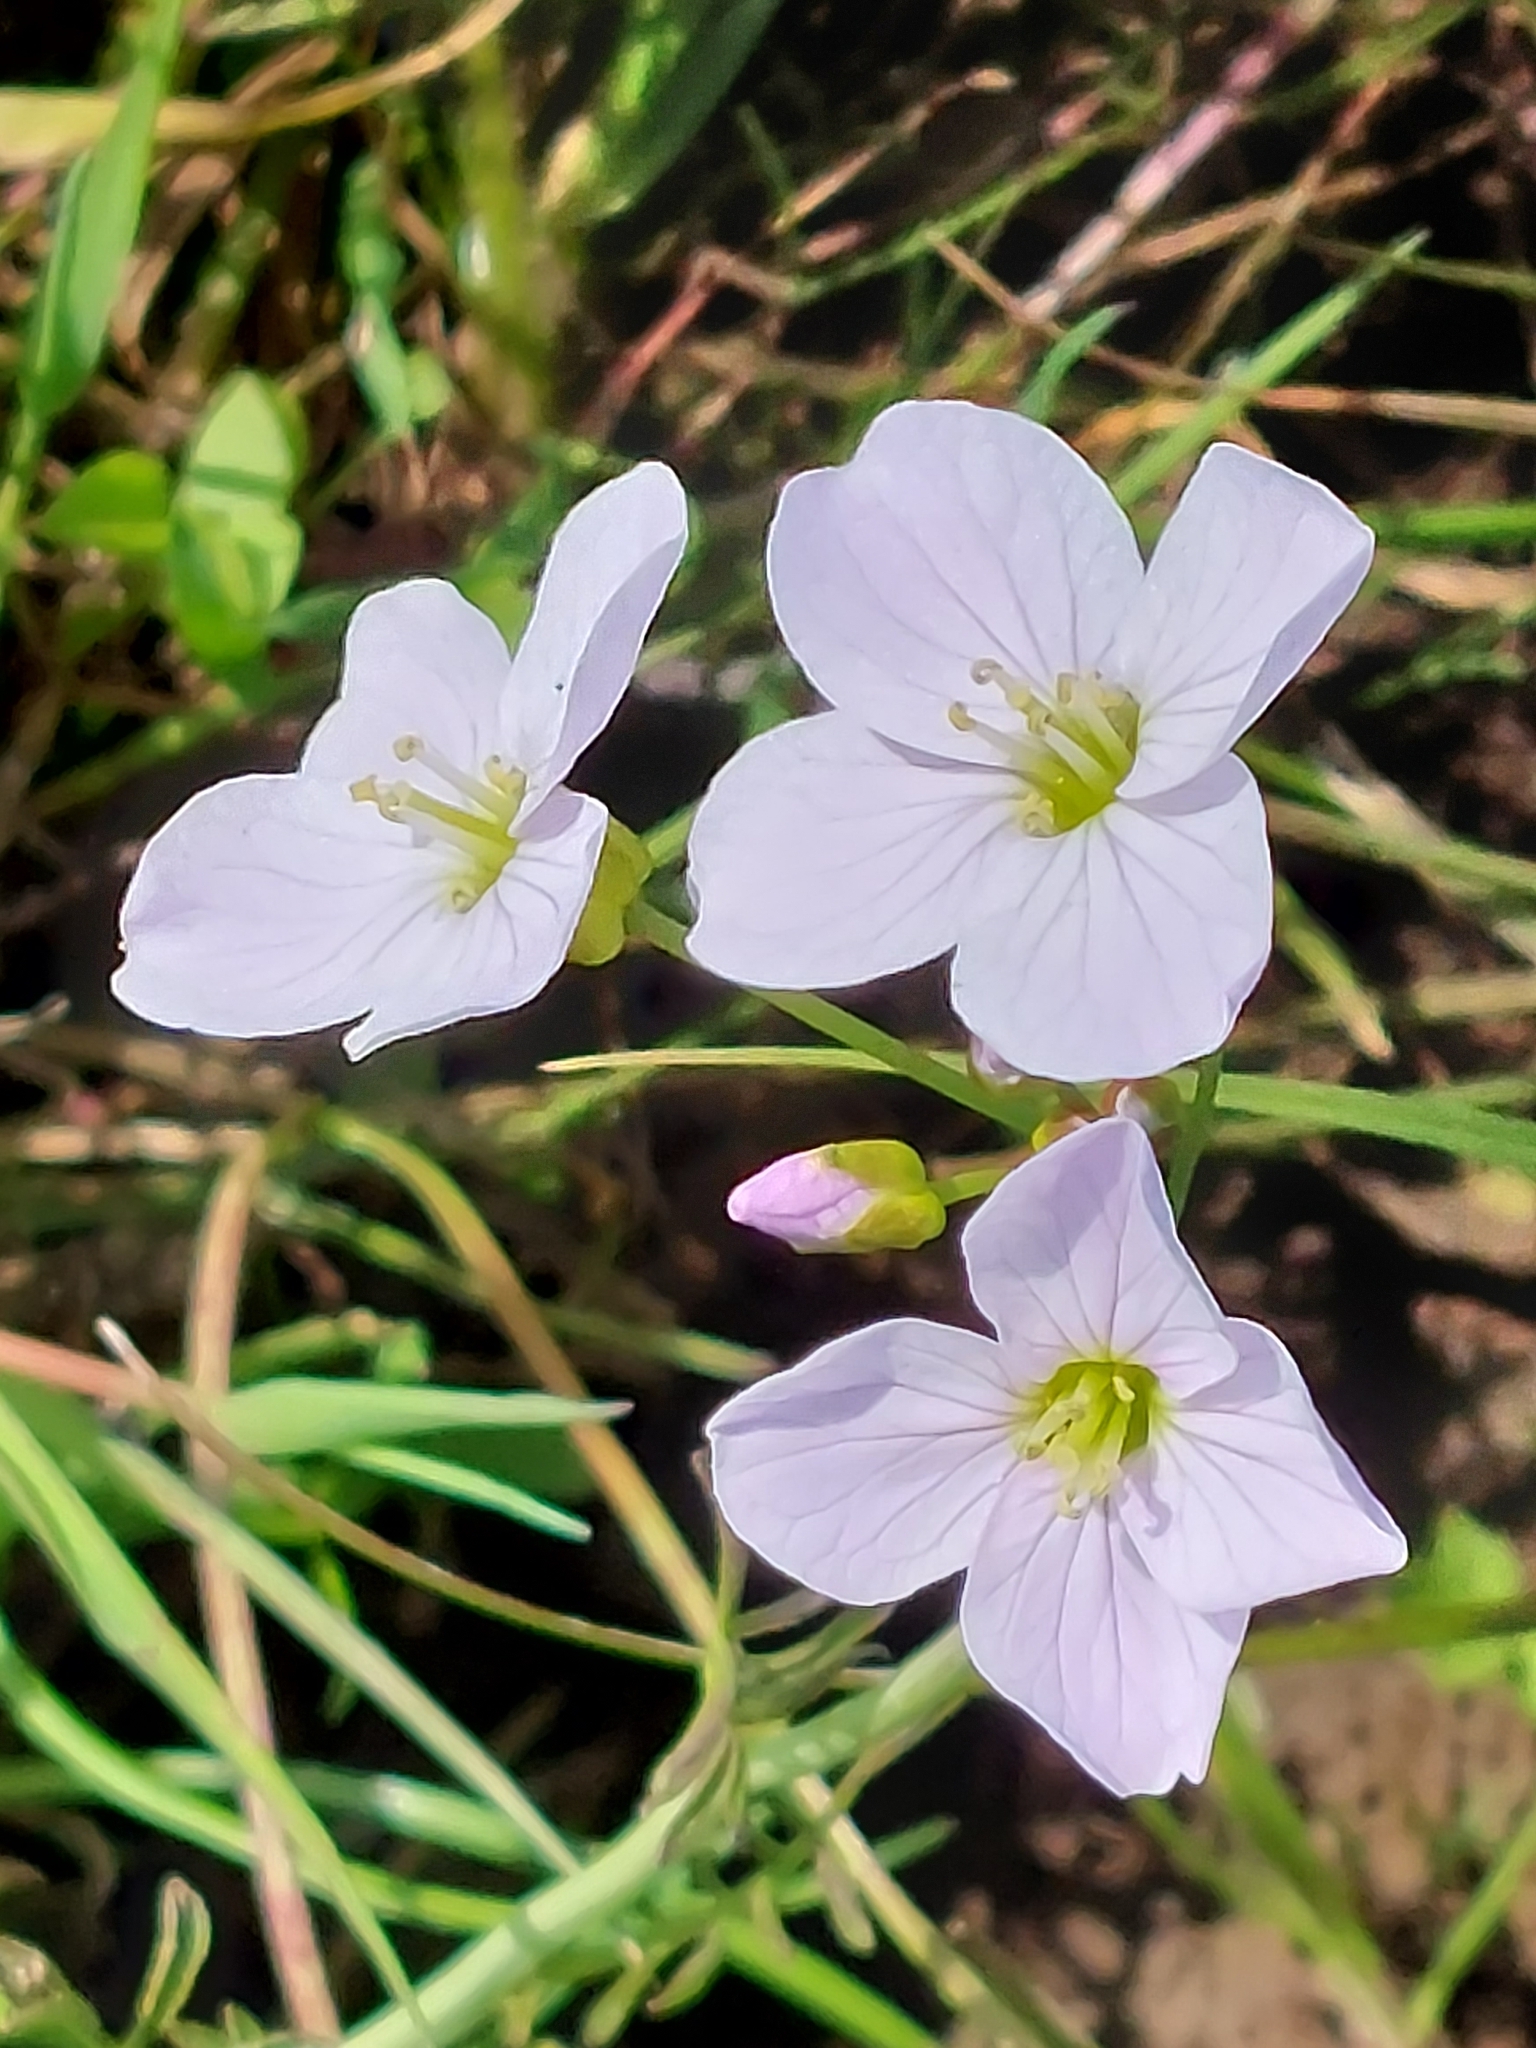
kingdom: Plantae
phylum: Tracheophyta
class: Magnoliopsida
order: Brassicales
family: Brassicaceae
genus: Cardamine
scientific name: Cardamine pratensis
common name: Cuckoo flower
